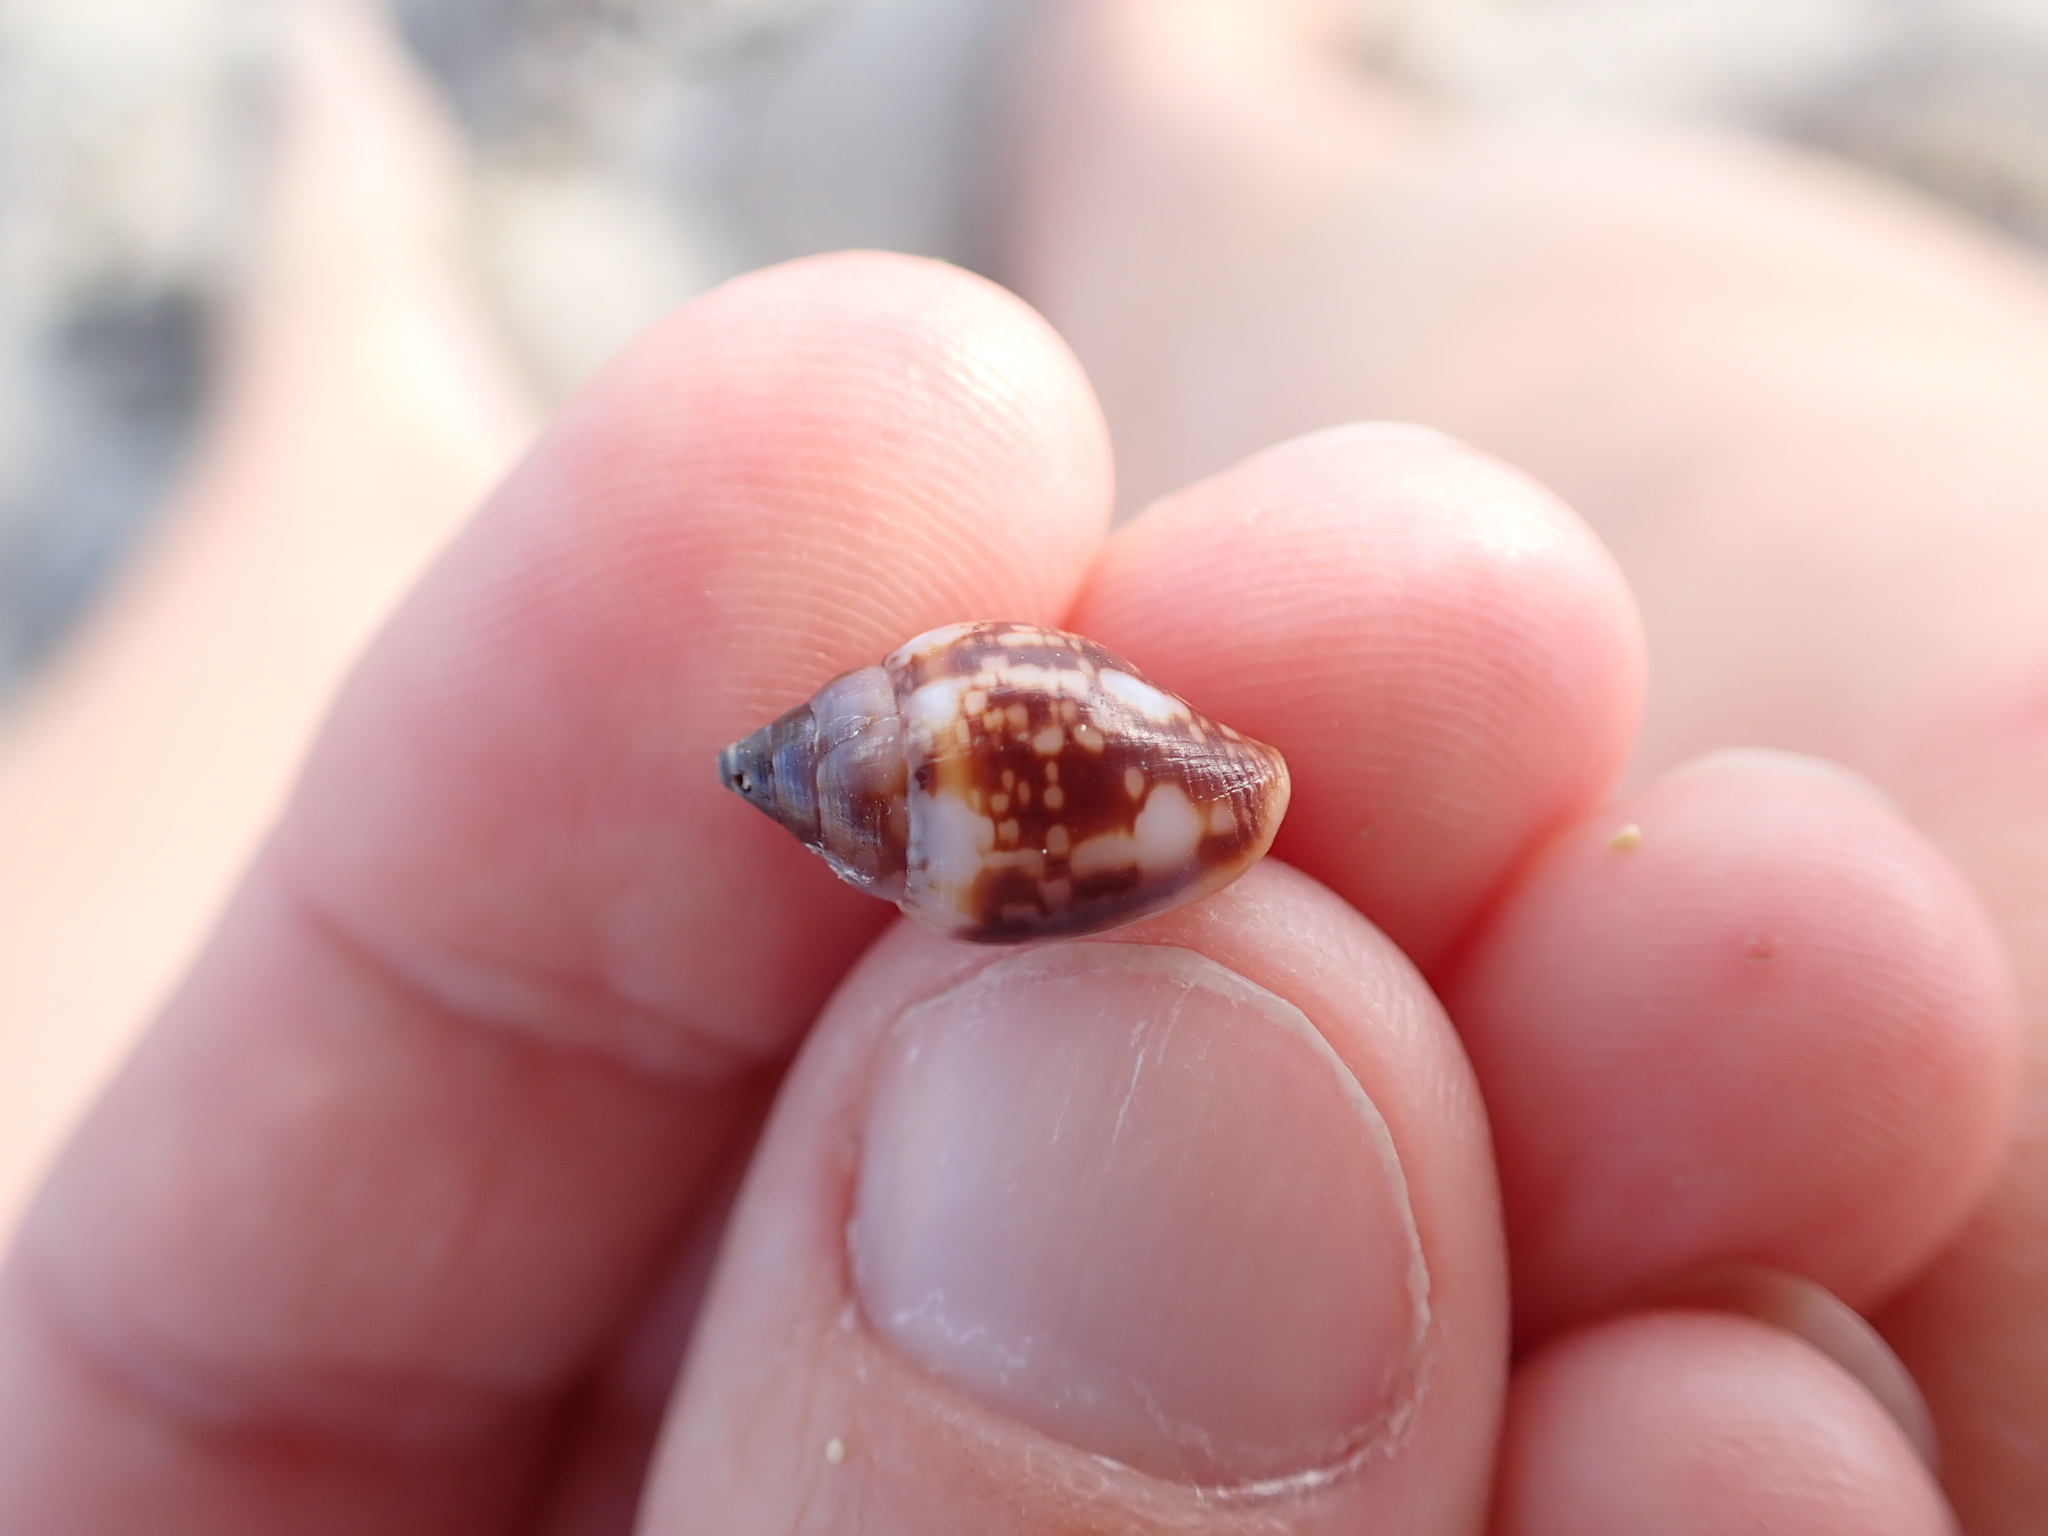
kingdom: Animalia
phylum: Mollusca
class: Gastropoda
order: Neogastropoda
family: Columbellidae
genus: Columbella
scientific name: Columbella rustica
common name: Rustic dove shell
